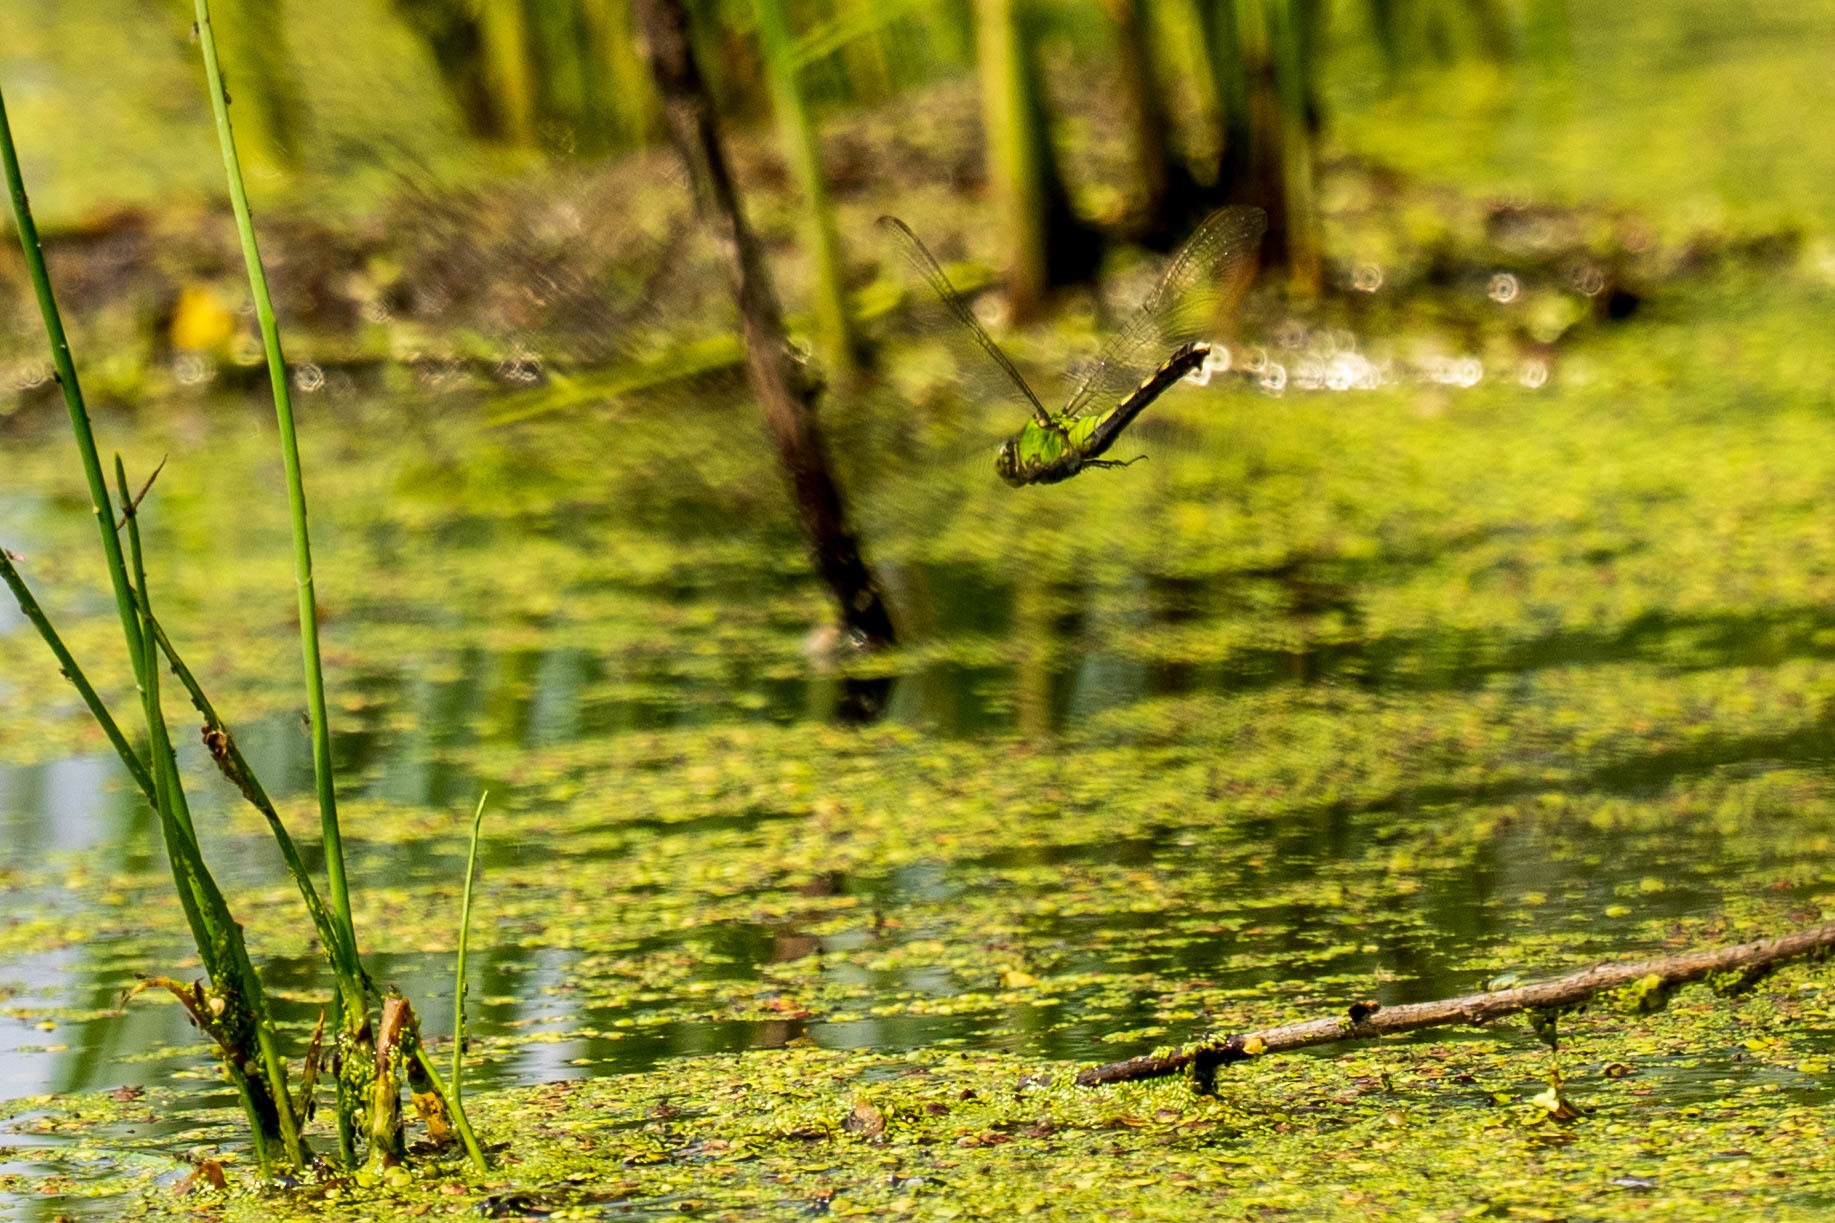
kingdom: Animalia
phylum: Arthropoda
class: Insecta
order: Odonata
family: Libellulidae
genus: Erythemis
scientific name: Erythemis simplicicollis
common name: Eastern pondhawk
